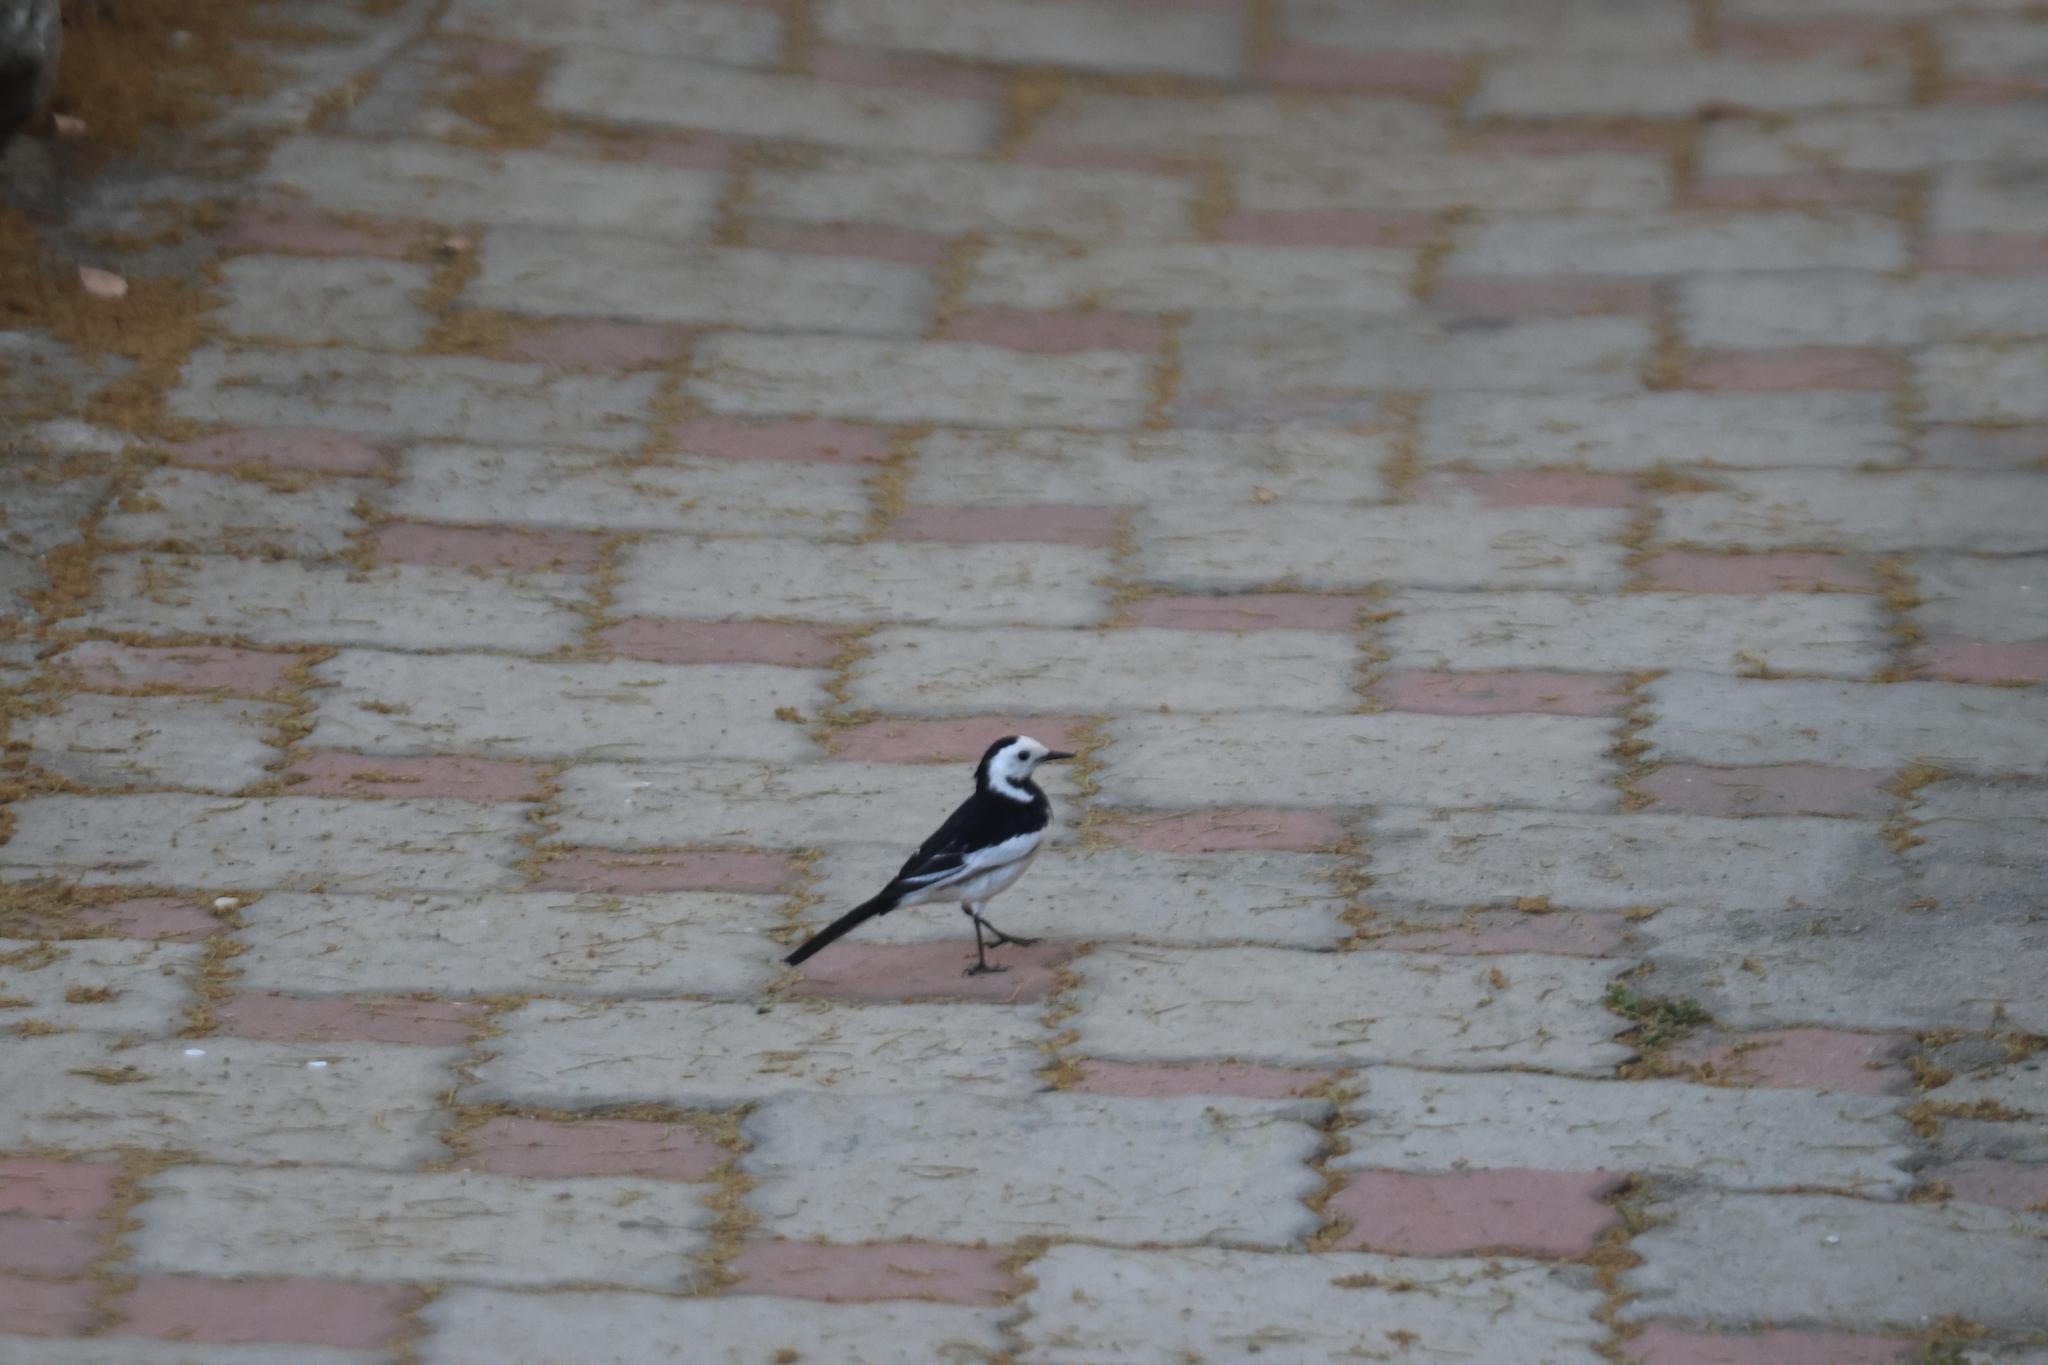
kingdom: Animalia
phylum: Chordata
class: Aves
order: Passeriformes
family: Motacillidae
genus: Motacilla
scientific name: Motacilla alba
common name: White wagtail
